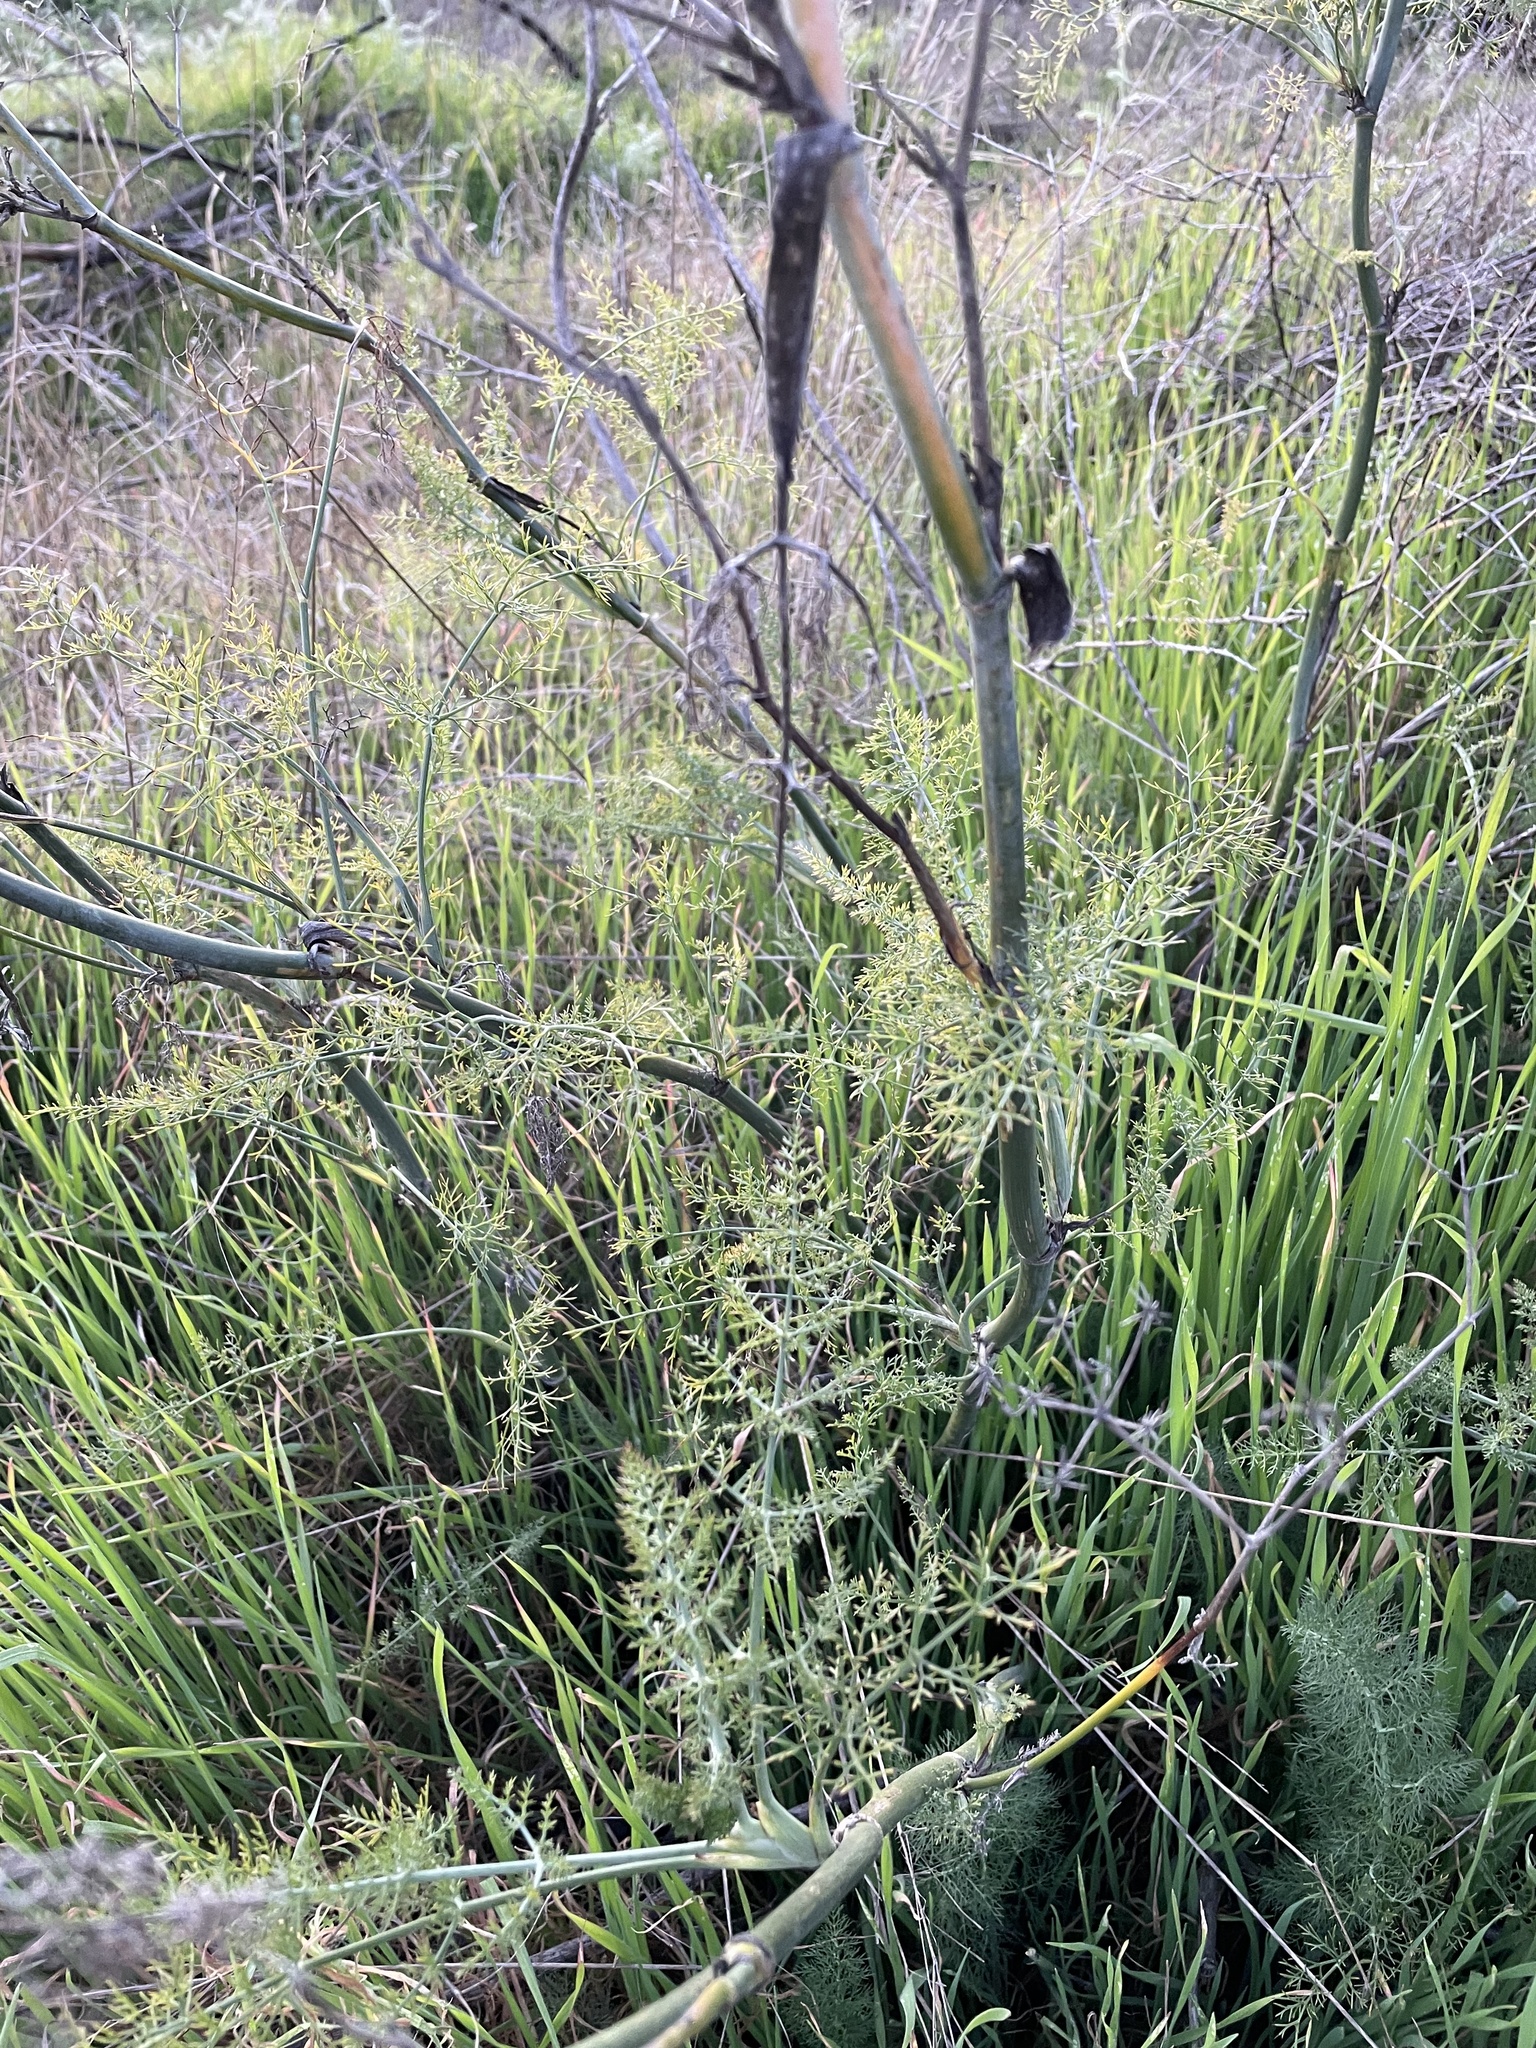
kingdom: Plantae
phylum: Tracheophyta
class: Magnoliopsida
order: Apiales
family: Apiaceae
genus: Foeniculum
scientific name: Foeniculum vulgare
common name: Fennel
